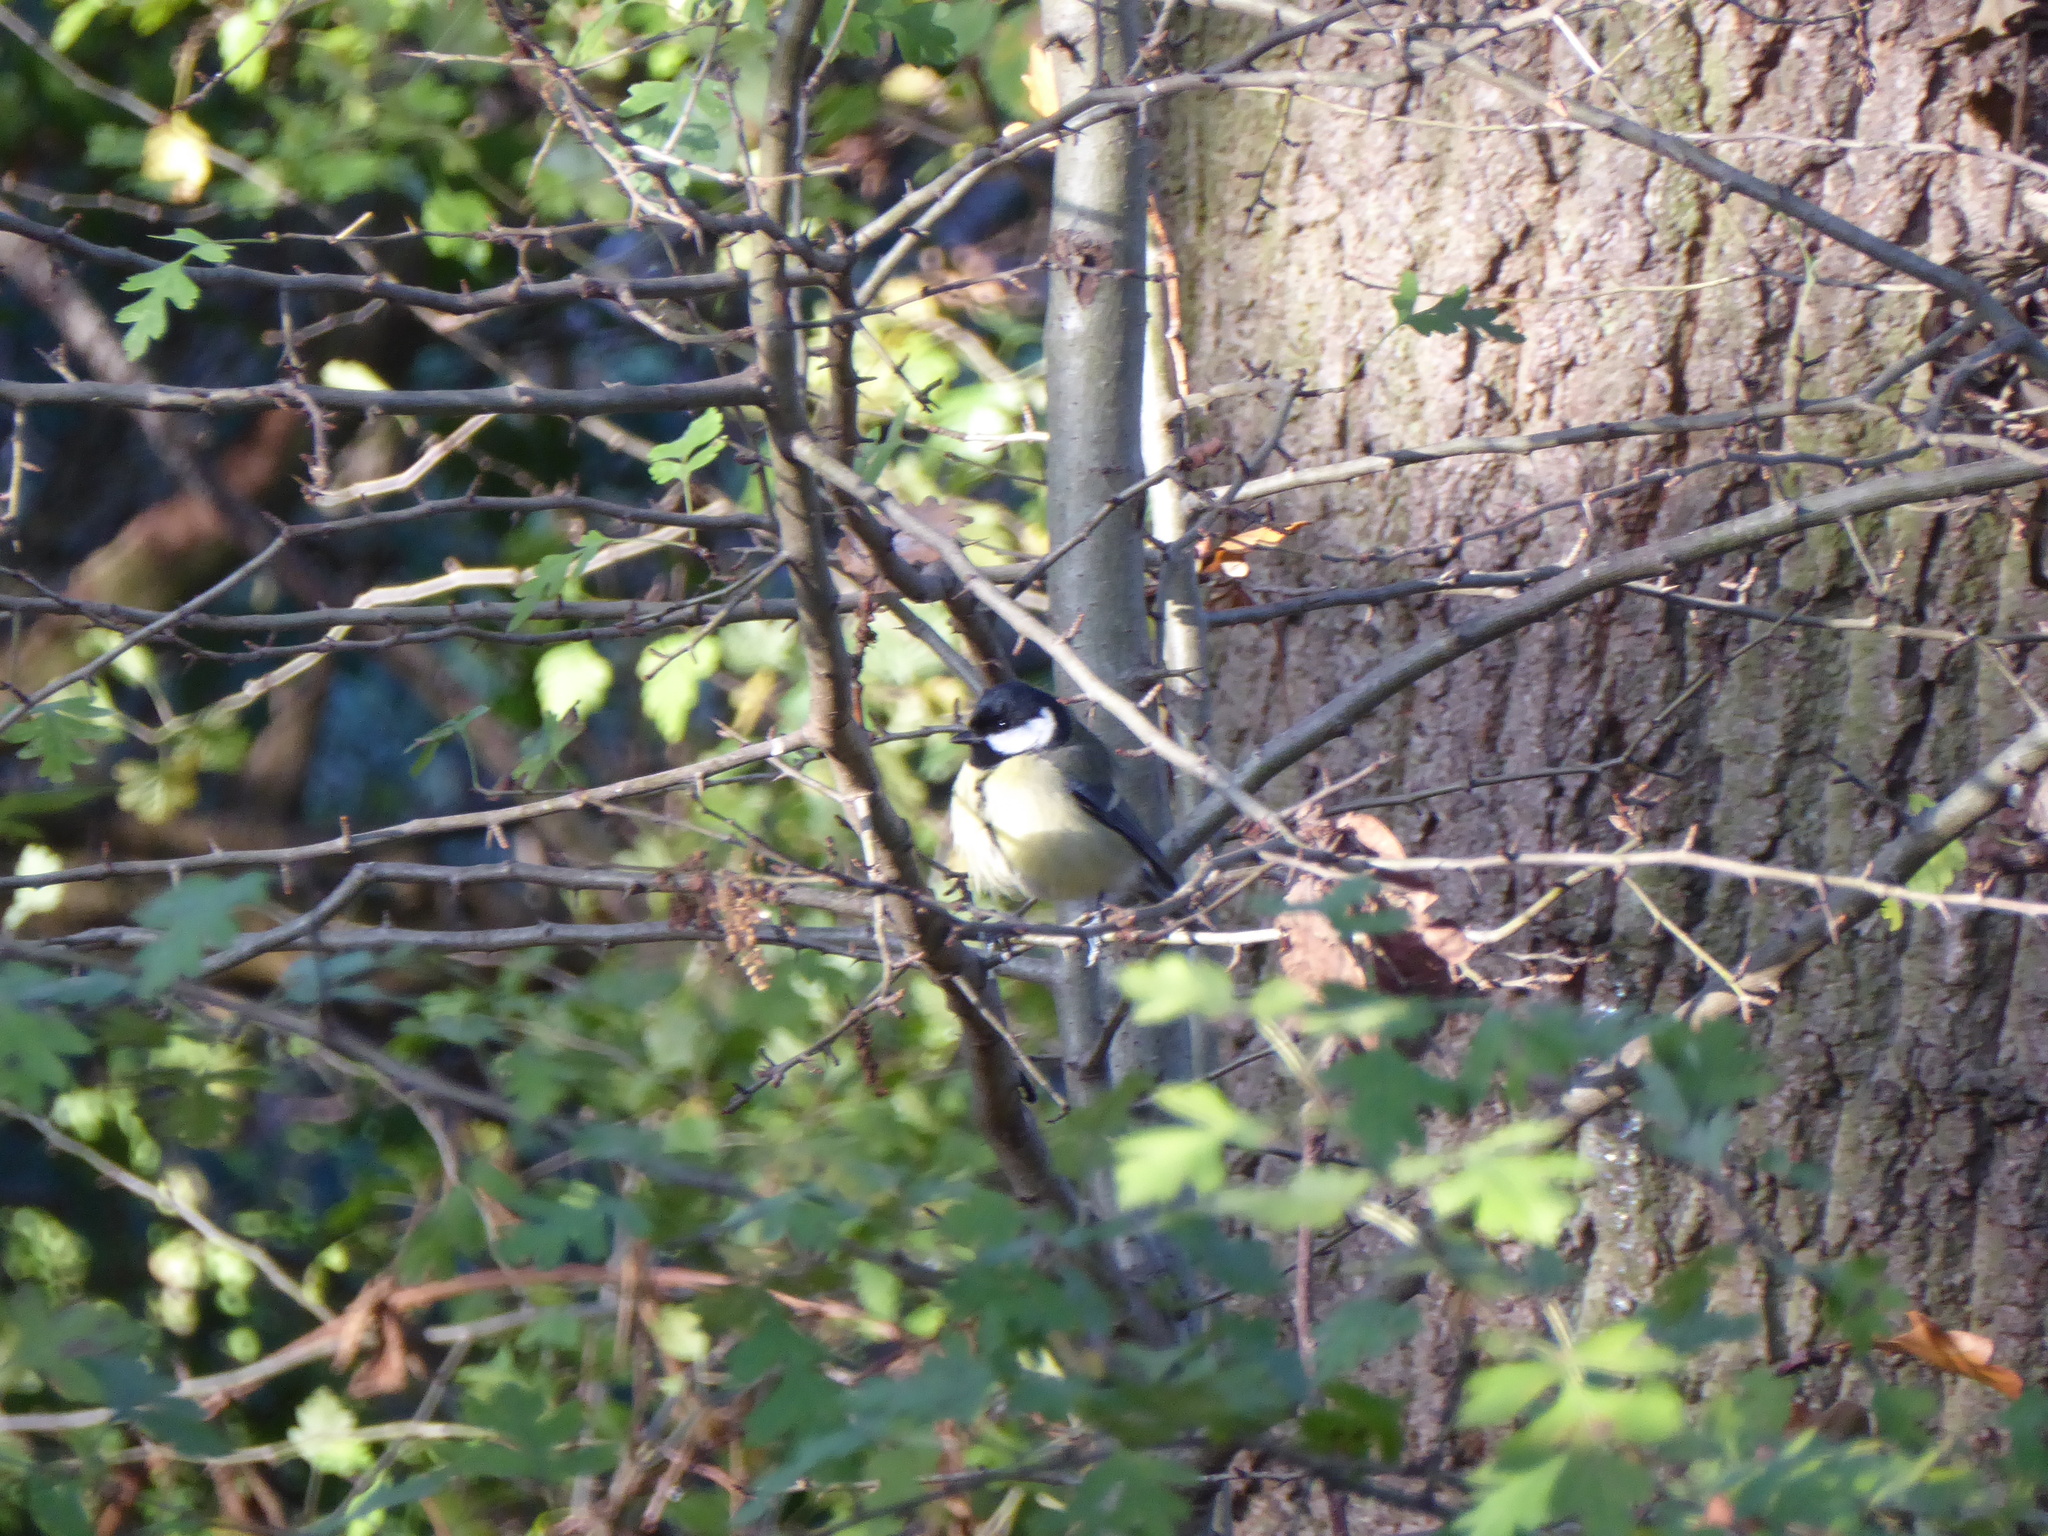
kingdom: Animalia
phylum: Chordata
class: Aves
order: Passeriformes
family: Paridae
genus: Parus
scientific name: Parus major
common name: Great tit
